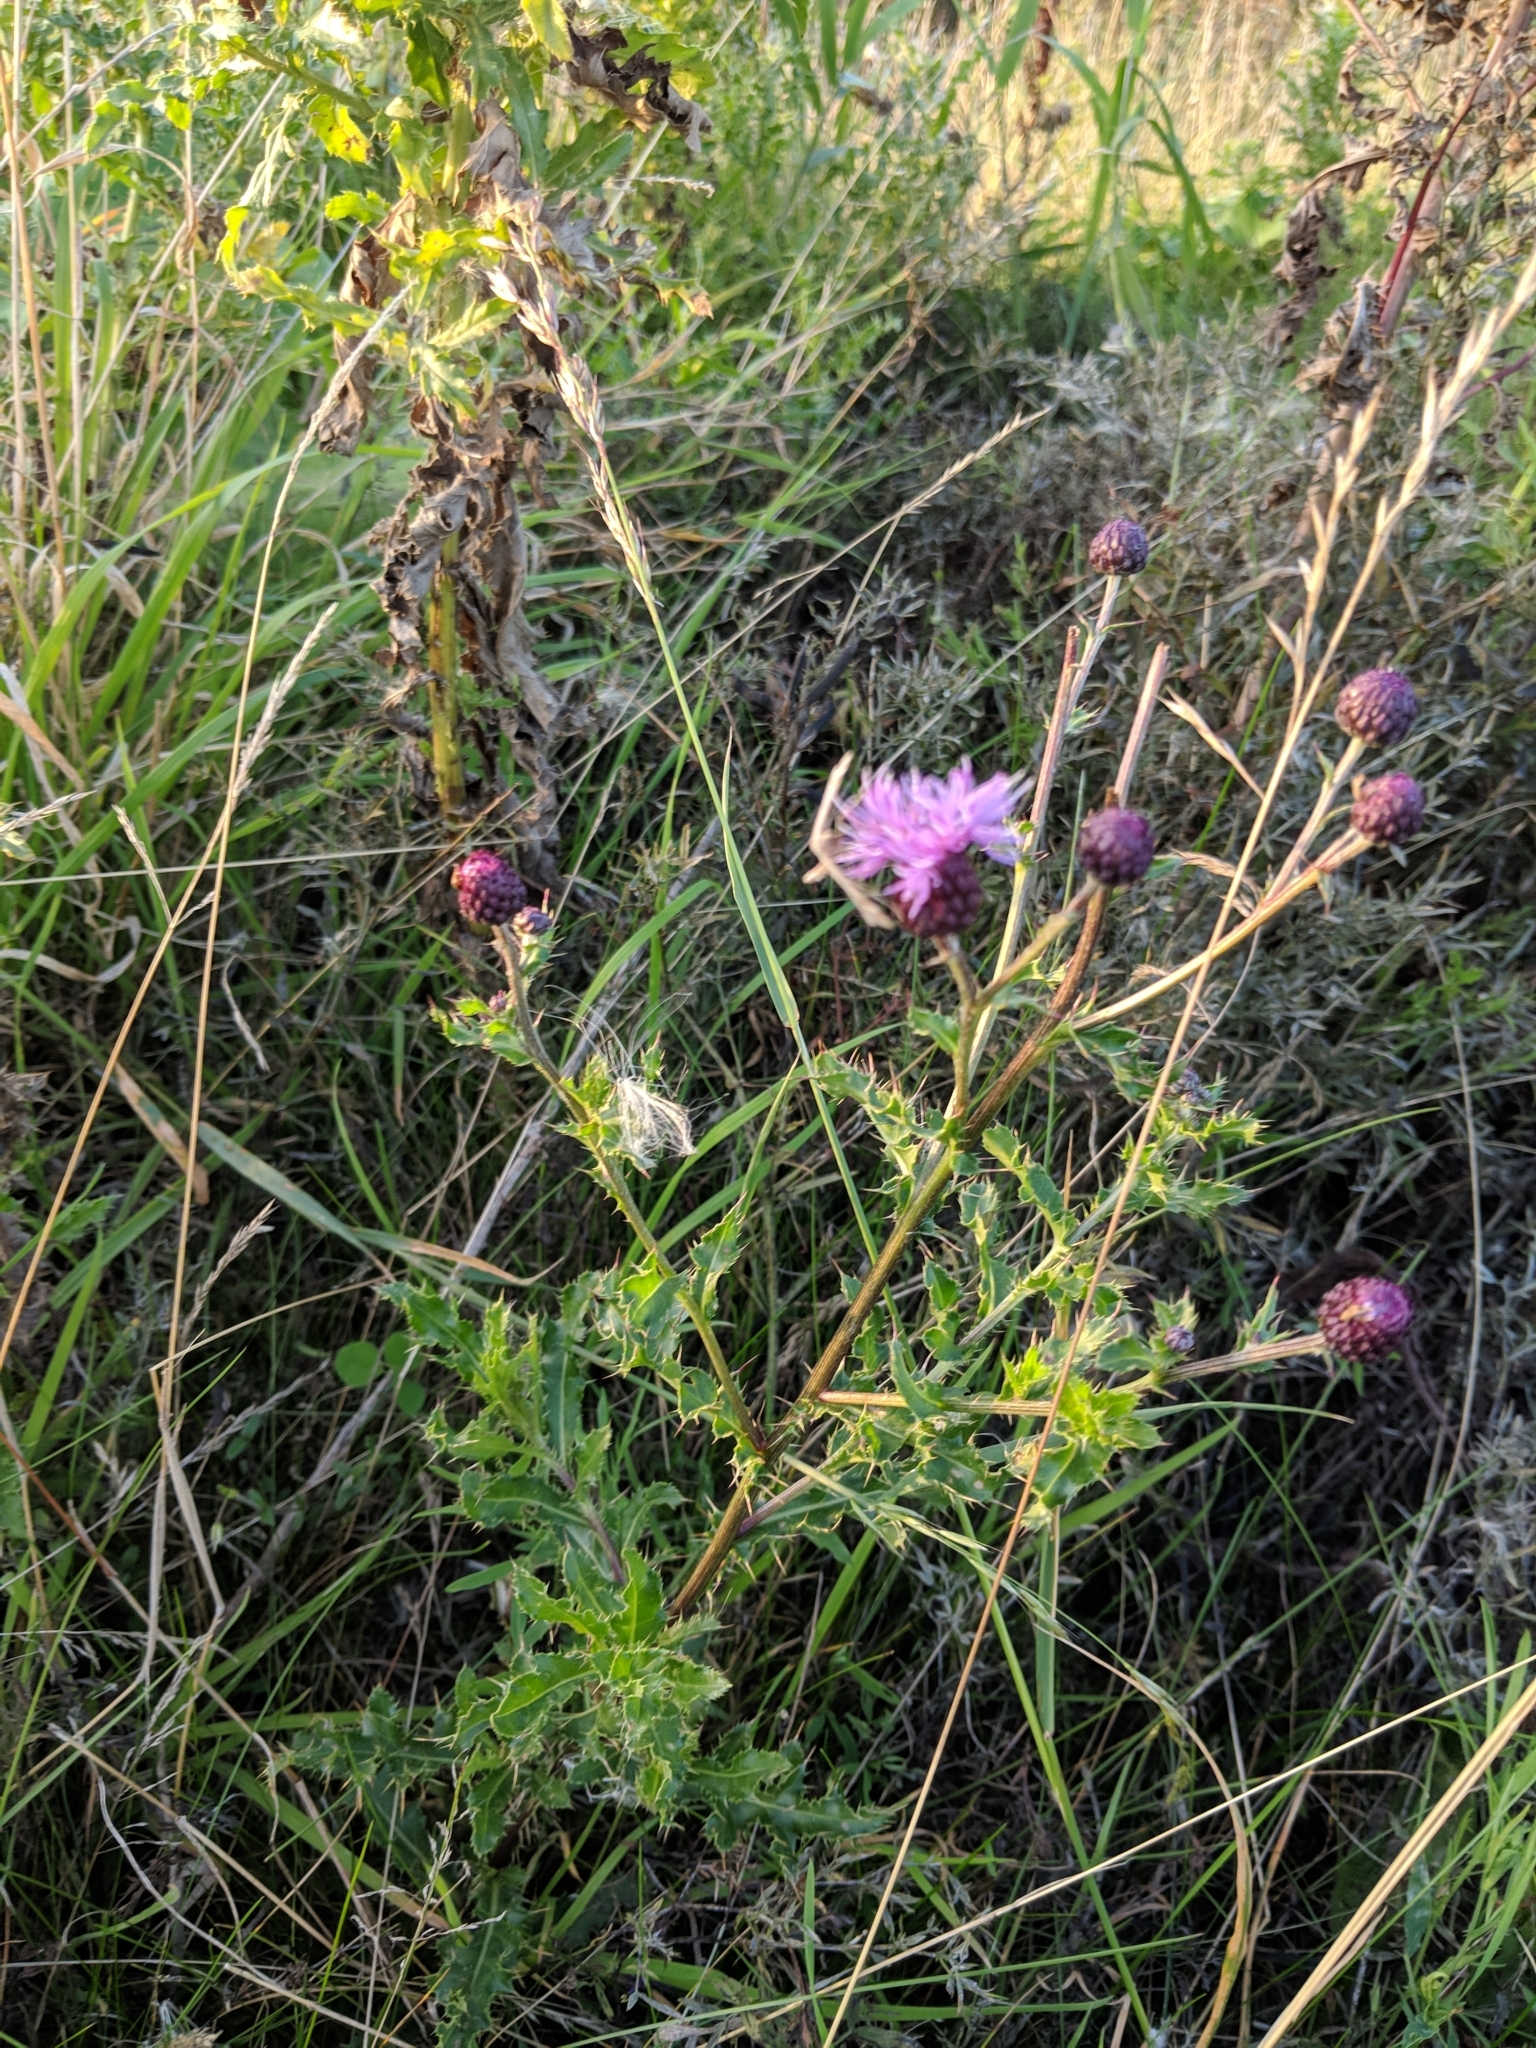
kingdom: Plantae
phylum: Tracheophyta
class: Magnoliopsida
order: Asterales
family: Asteraceae
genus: Cirsium
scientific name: Cirsium arvense
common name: Creeping thistle
